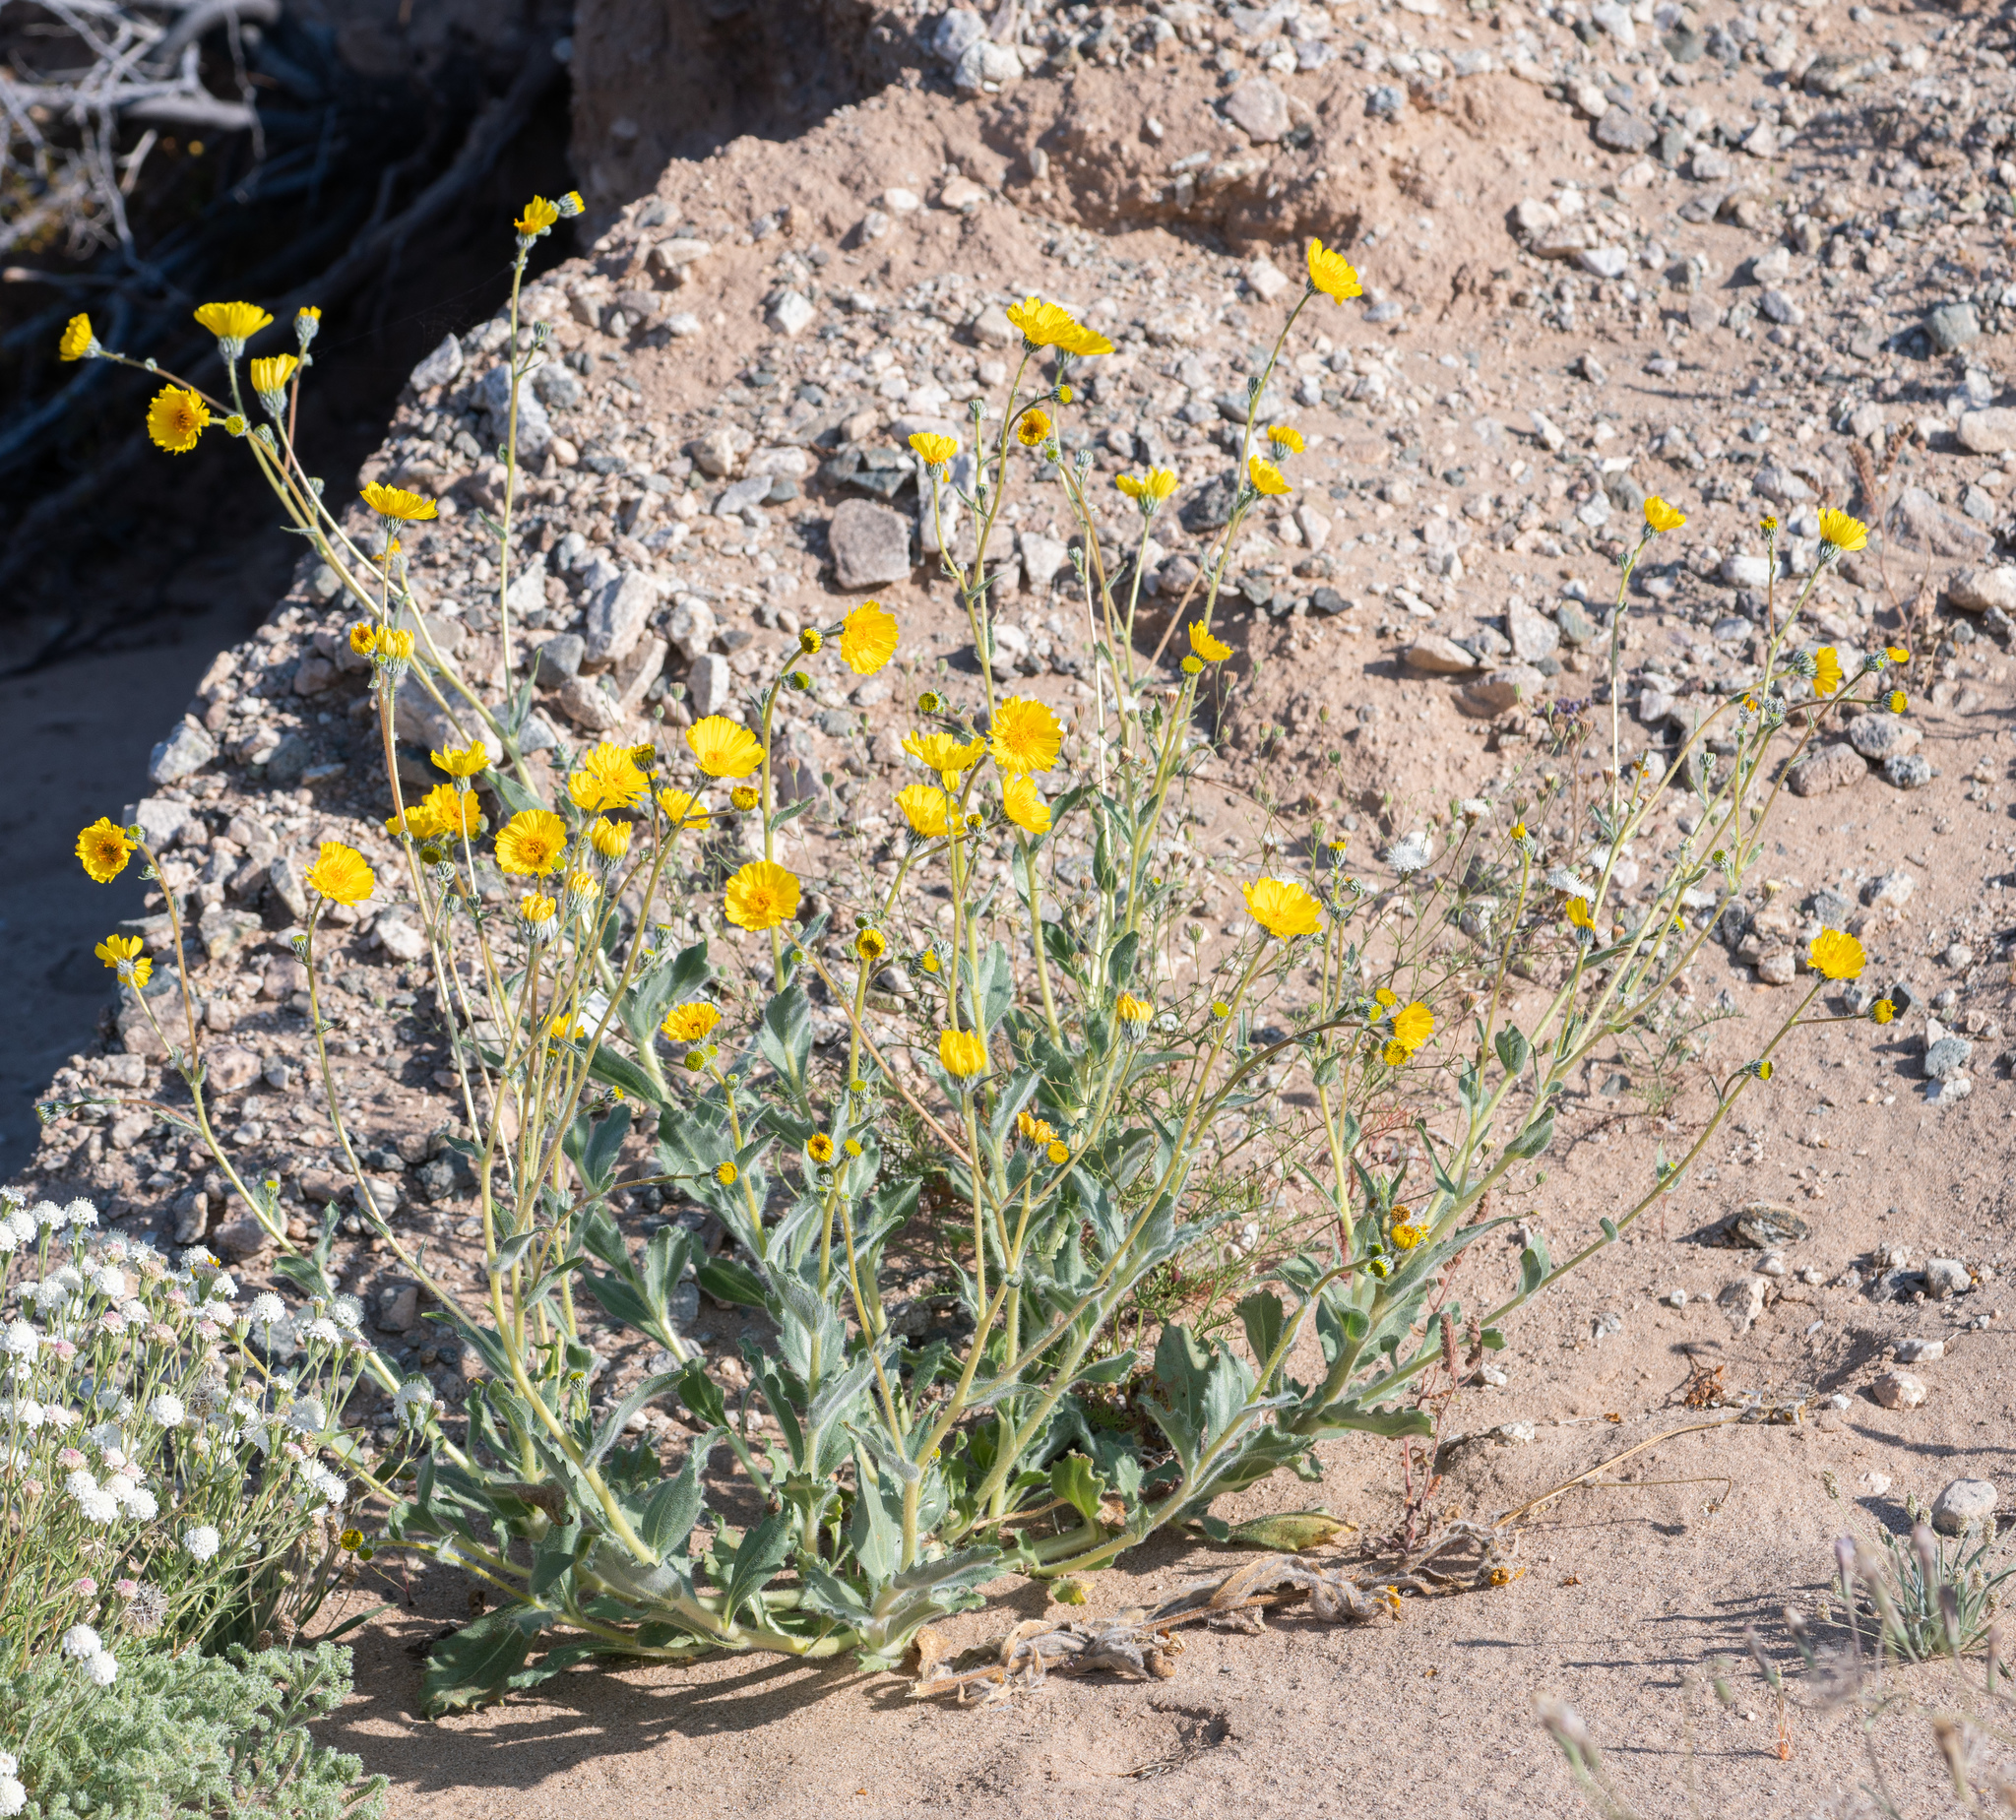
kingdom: Plantae
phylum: Tracheophyta
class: Magnoliopsida
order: Asterales
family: Asteraceae
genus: Geraea
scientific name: Geraea canescens
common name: Desert-gold
